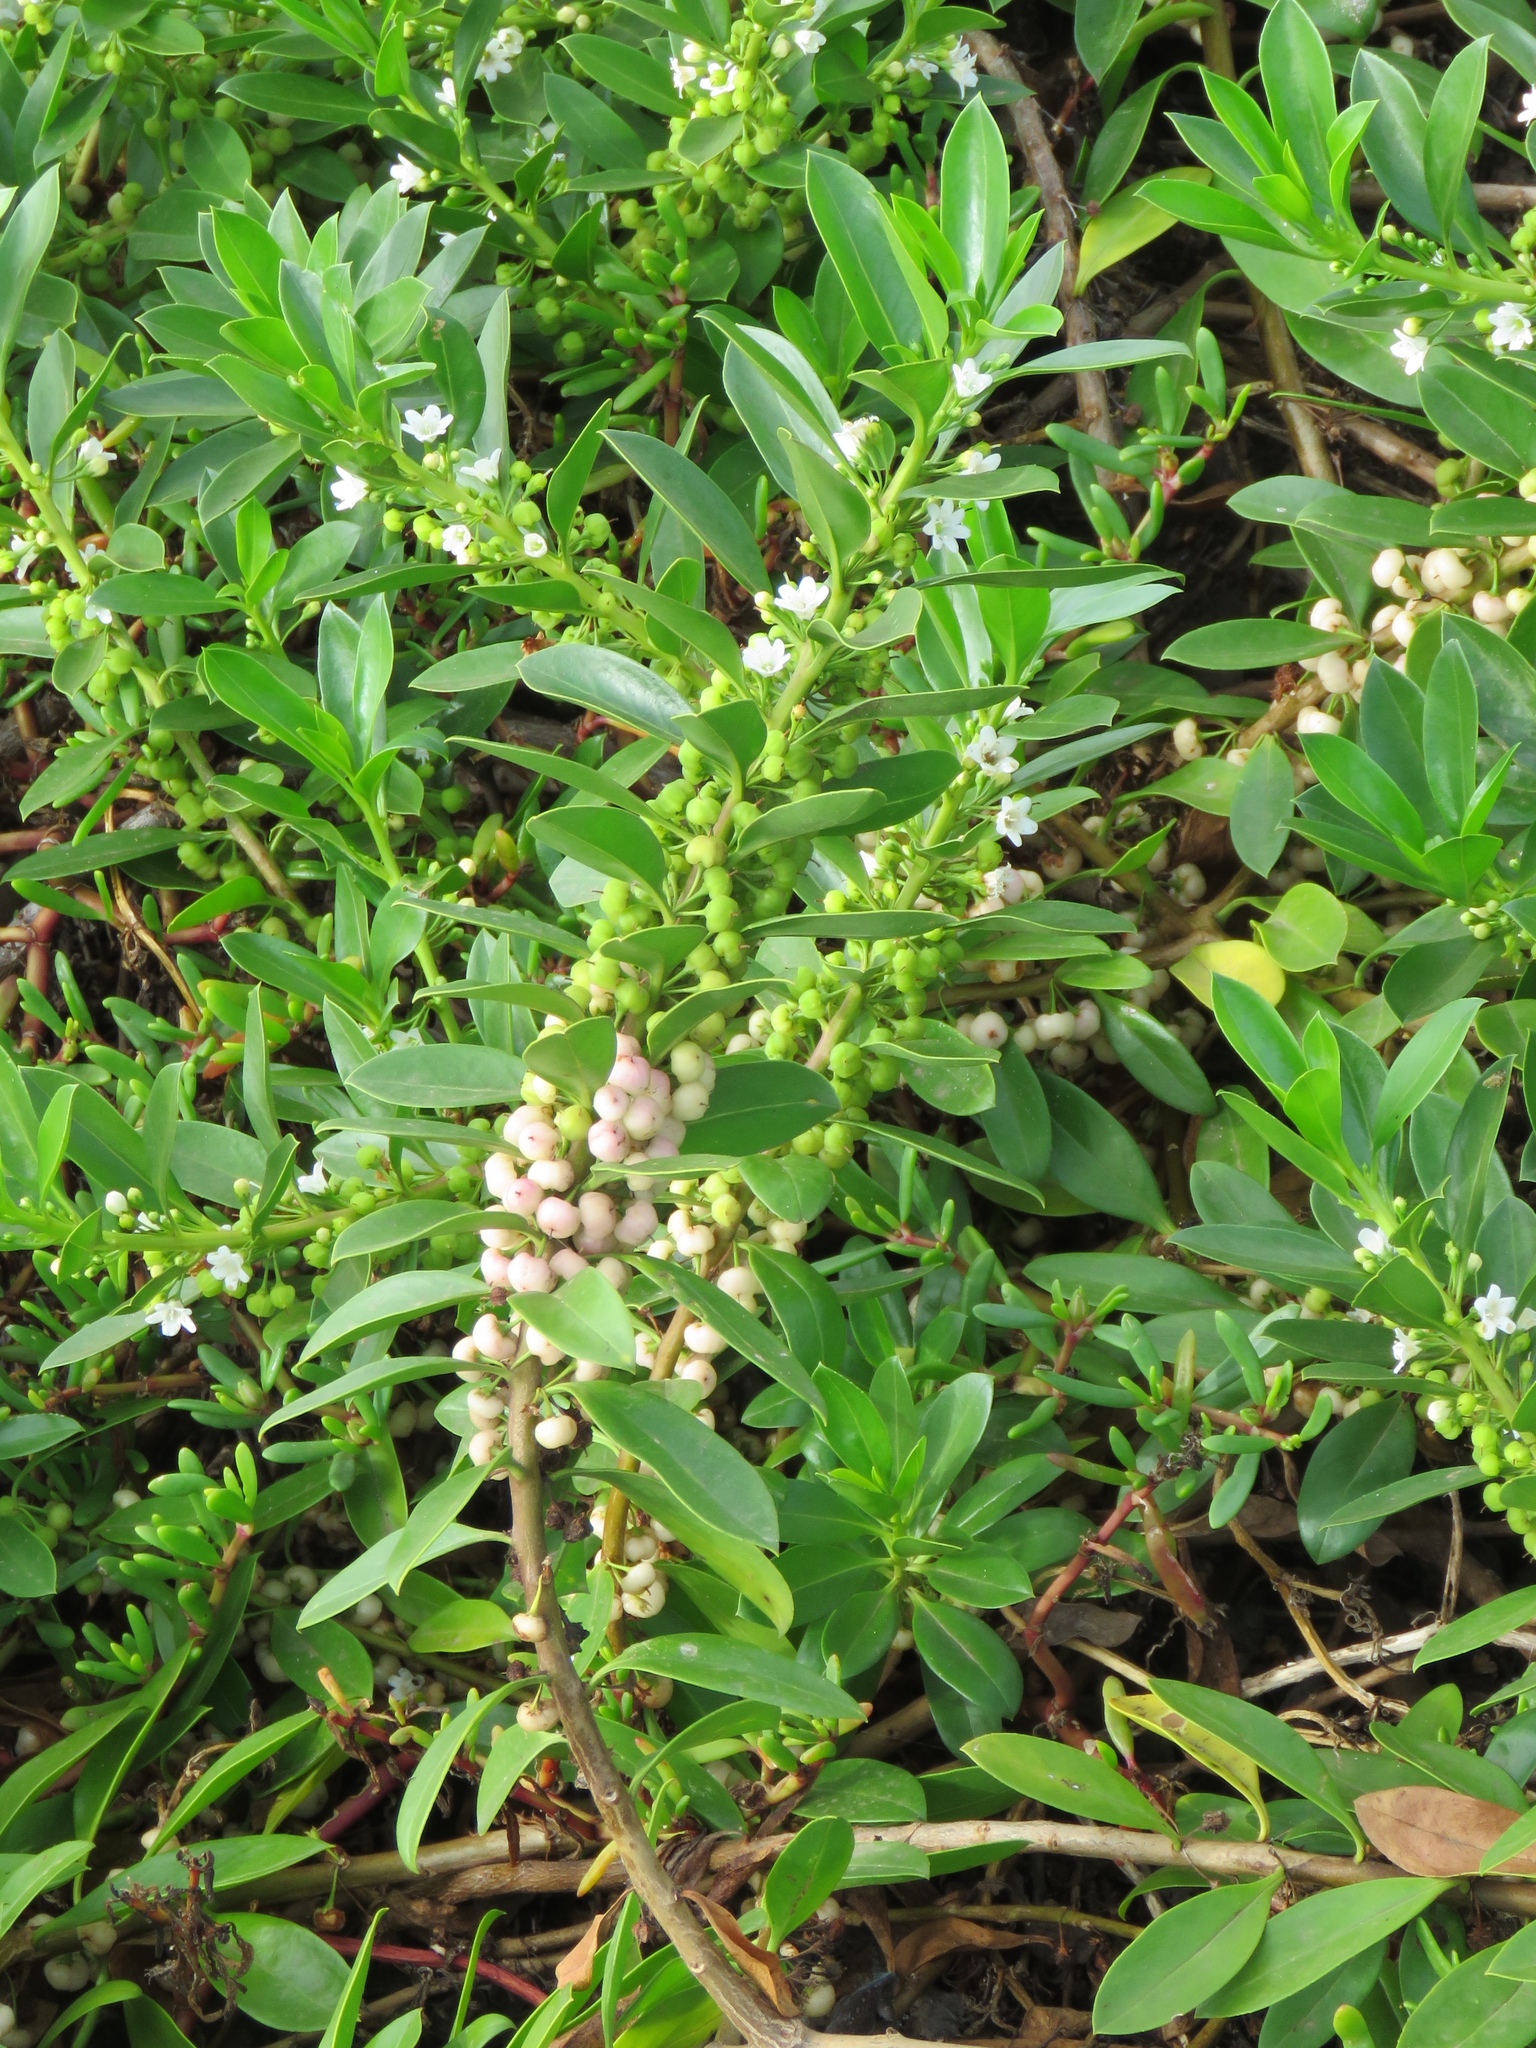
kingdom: Plantae
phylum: Tracheophyta
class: Magnoliopsida
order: Lamiales
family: Scrophulariaceae
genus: Myoporum
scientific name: Myoporum sandwicense
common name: Bastard-sandalwood
